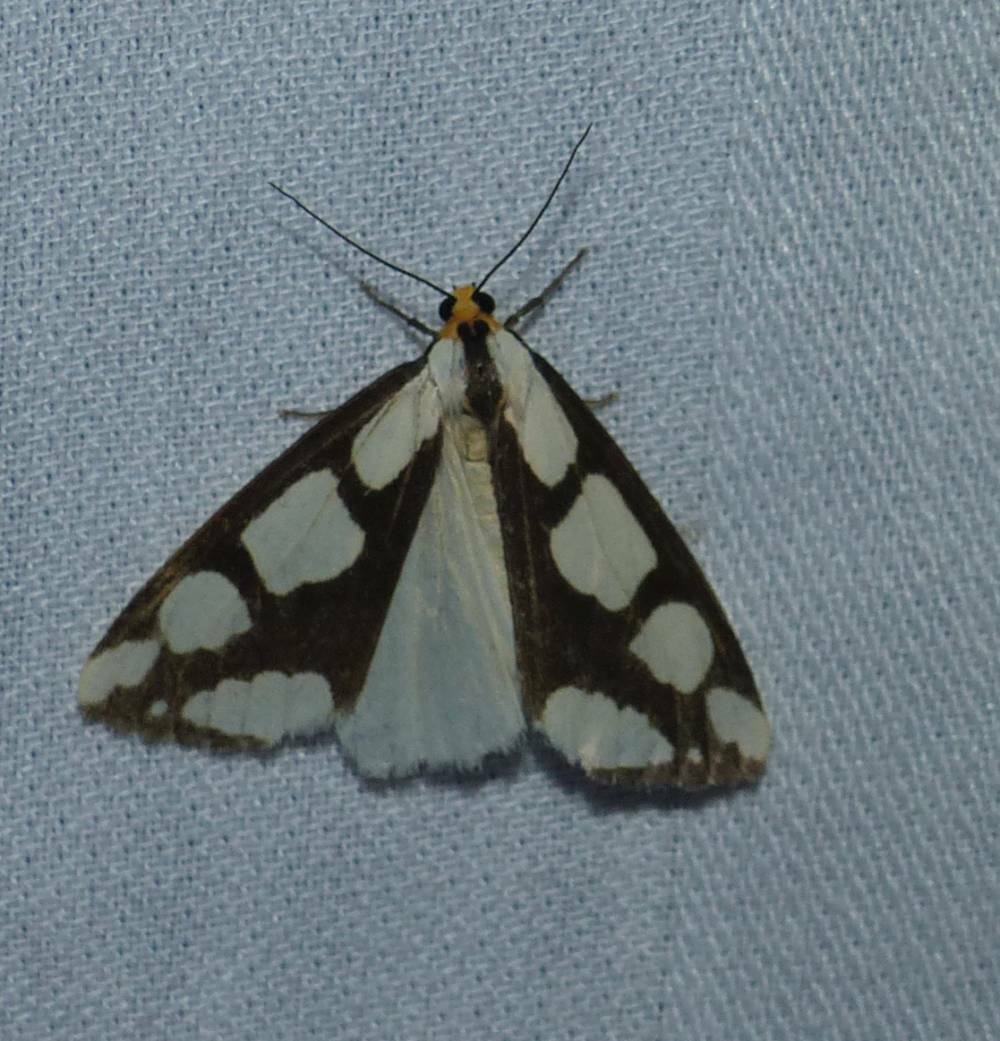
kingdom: Animalia
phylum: Arthropoda
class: Insecta
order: Lepidoptera
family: Erebidae
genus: Haploa
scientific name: Haploa lecontei
